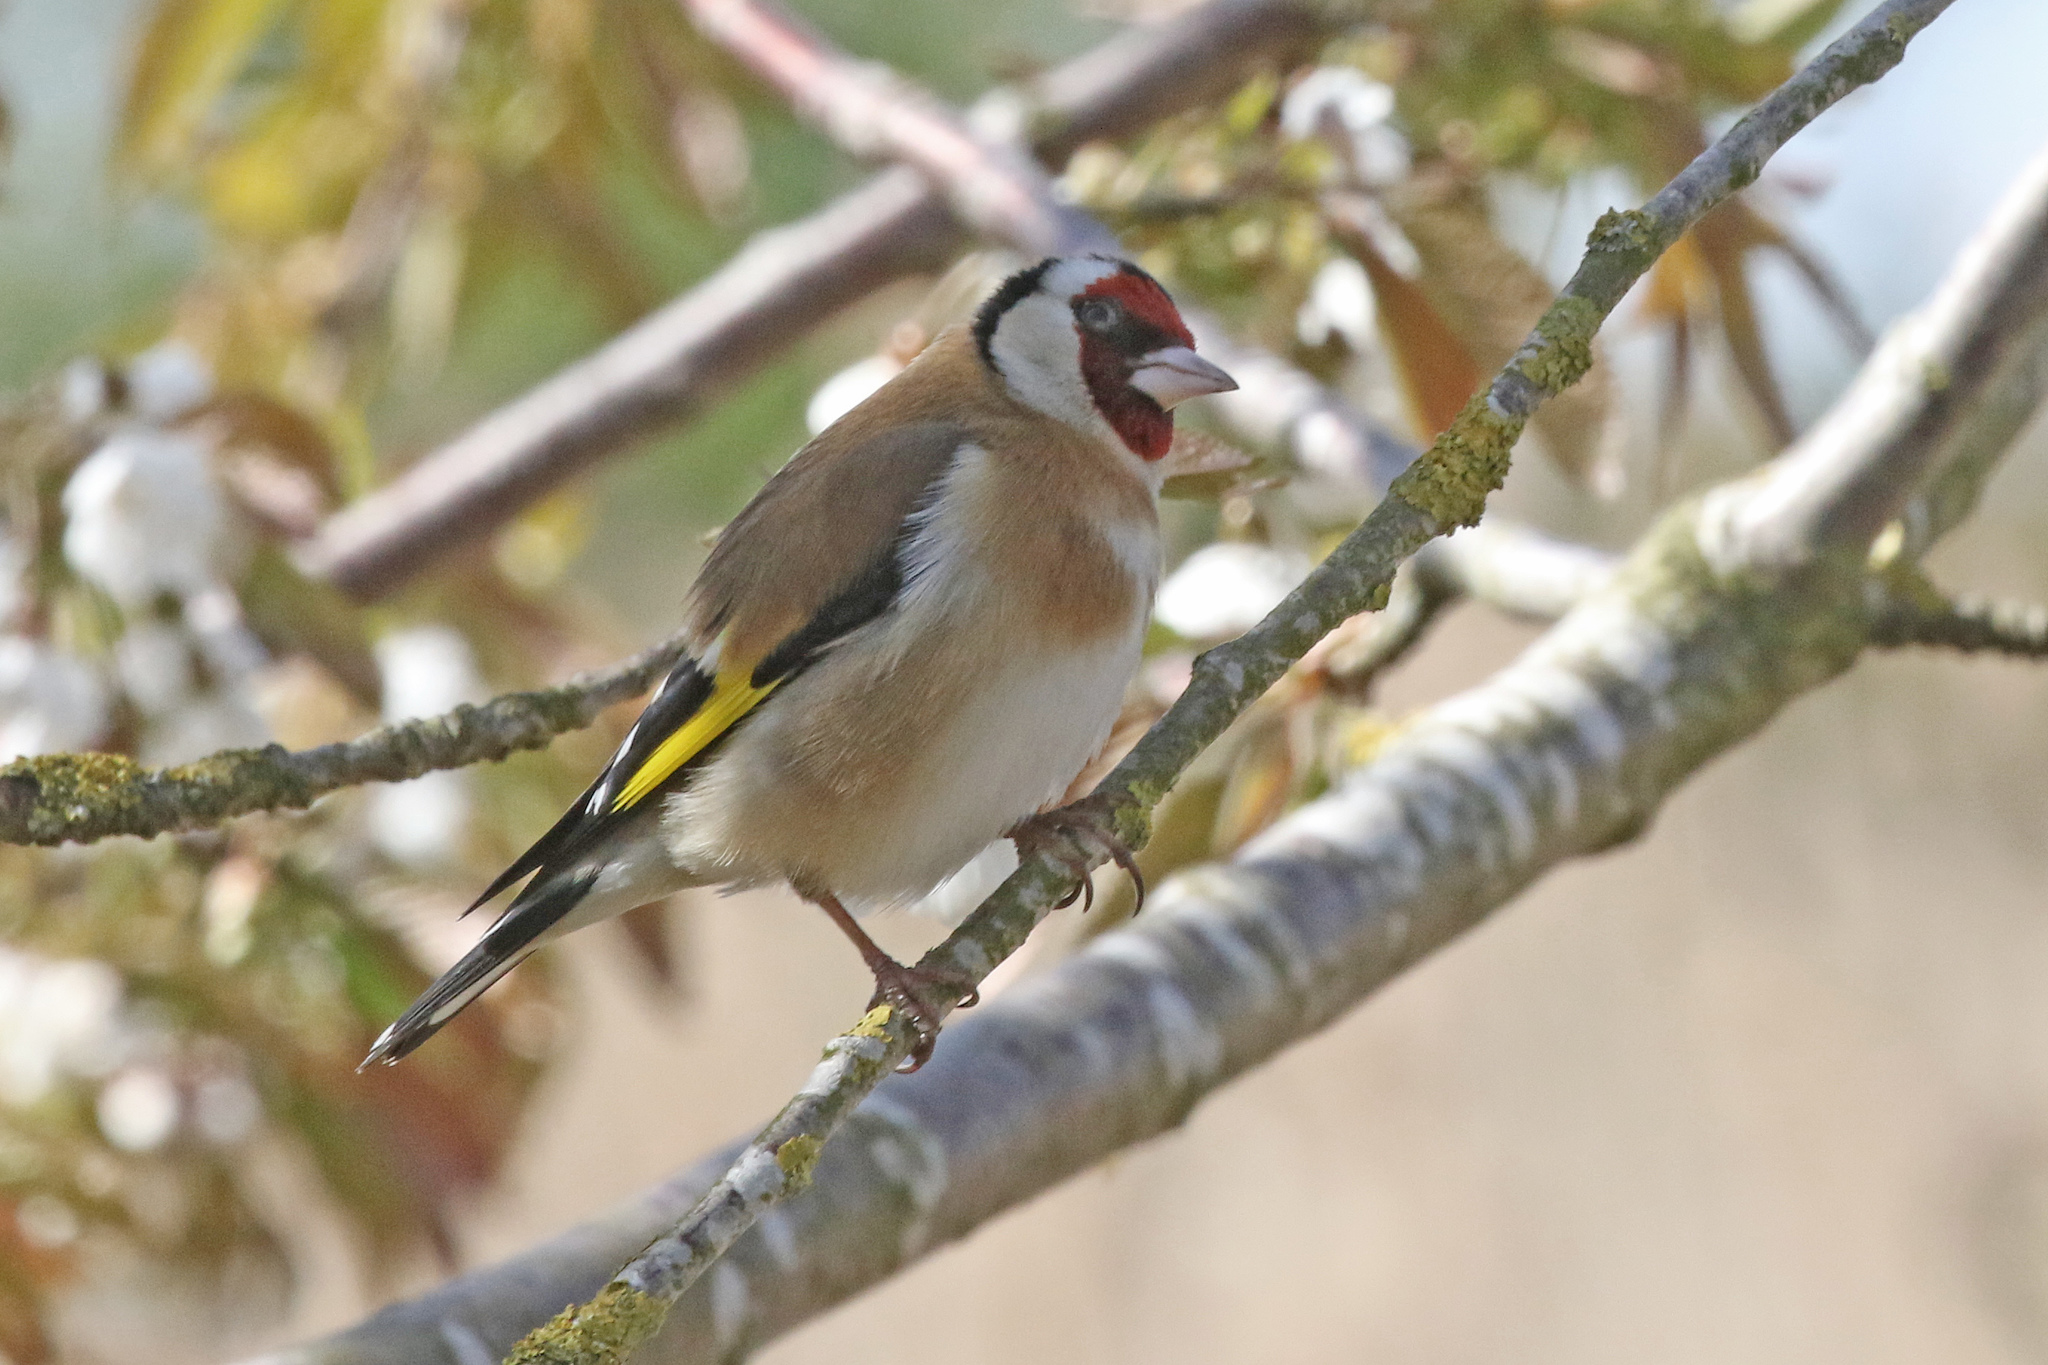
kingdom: Animalia
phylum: Chordata
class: Aves
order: Passeriformes
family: Fringillidae
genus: Carduelis
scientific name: Carduelis carduelis
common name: European goldfinch
